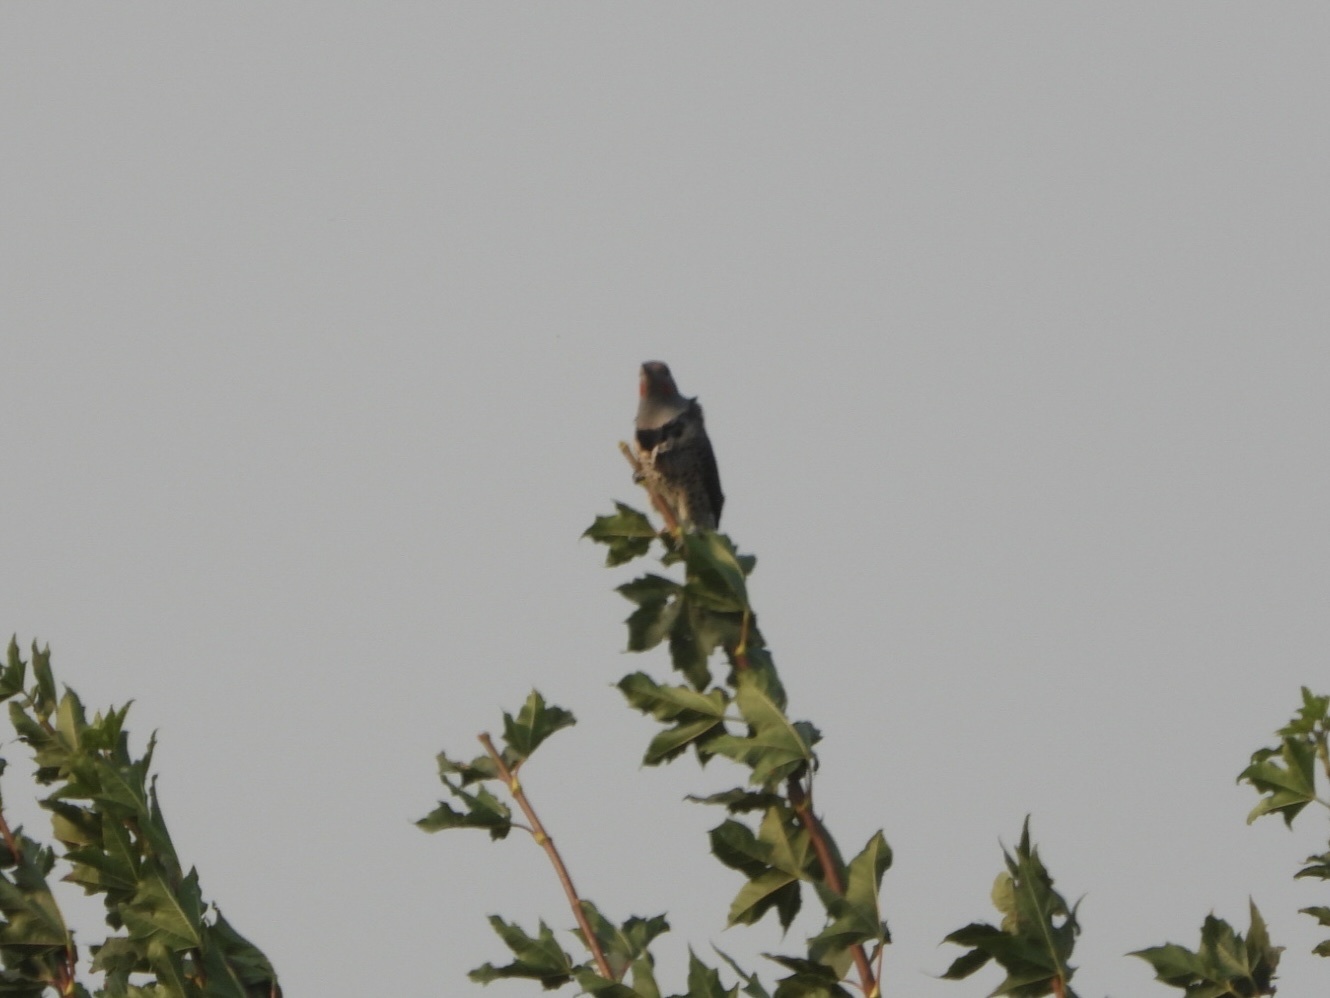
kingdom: Animalia
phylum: Chordata
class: Aves
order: Piciformes
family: Picidae
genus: Colaptes
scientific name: Colaptes auratus
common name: Northern flicker
